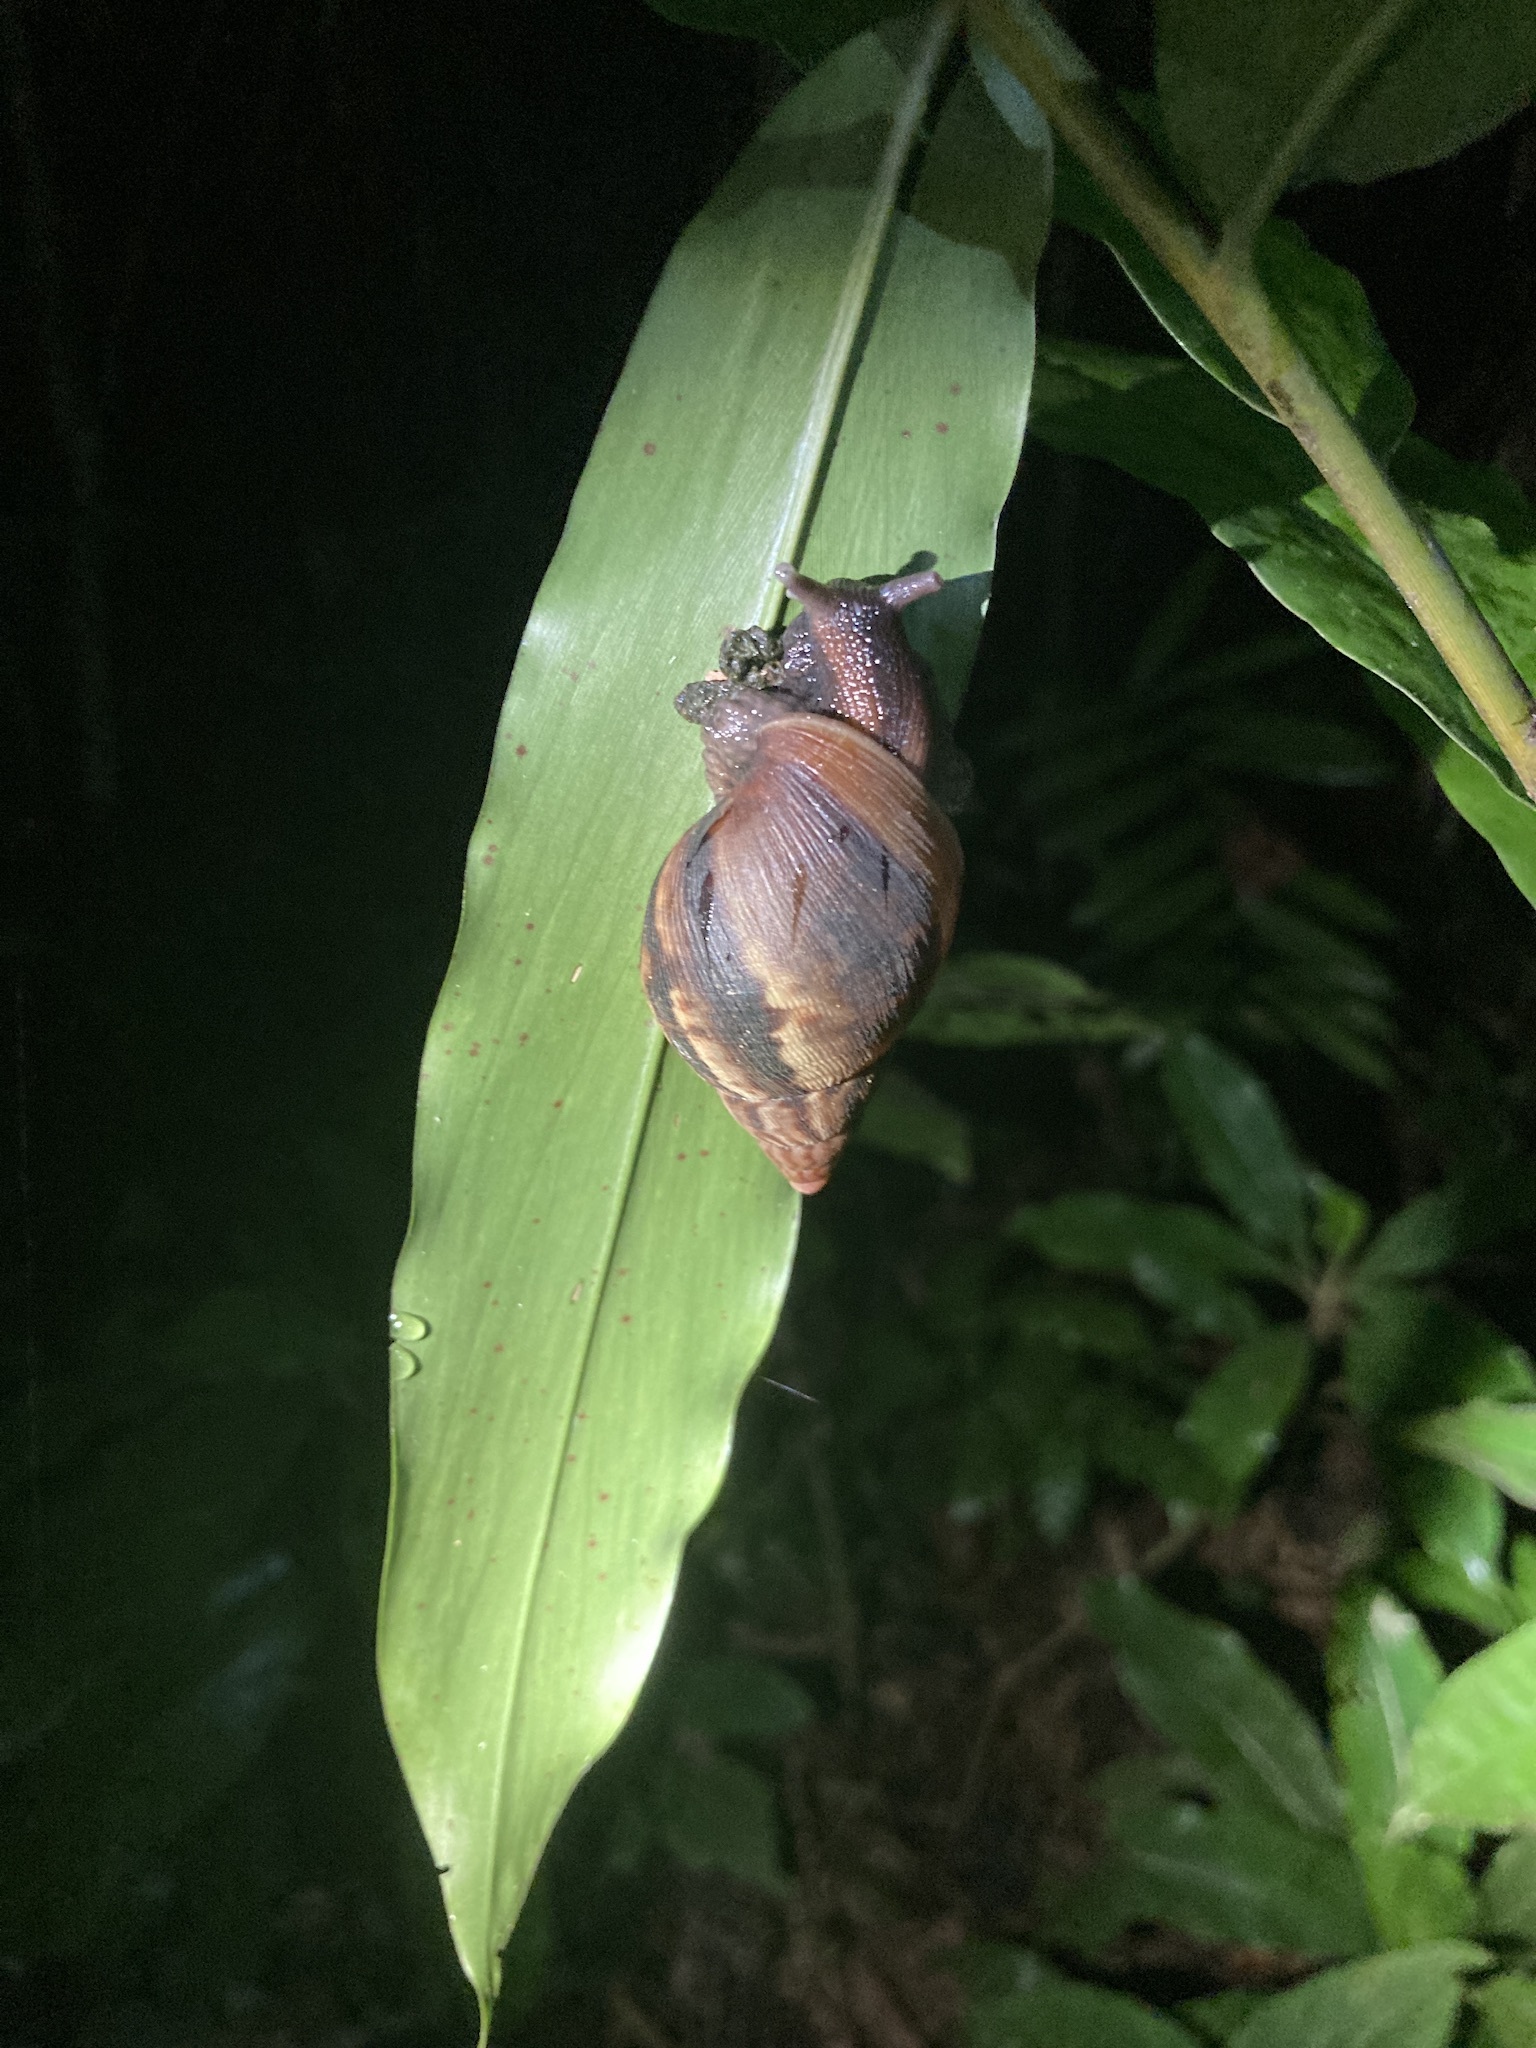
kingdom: Animalia
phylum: Mollusca
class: Gastropoda
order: Stylommatophora
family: Achatinidae
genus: Lissachatina
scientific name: Lissachatina fulica
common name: Giant african snail
